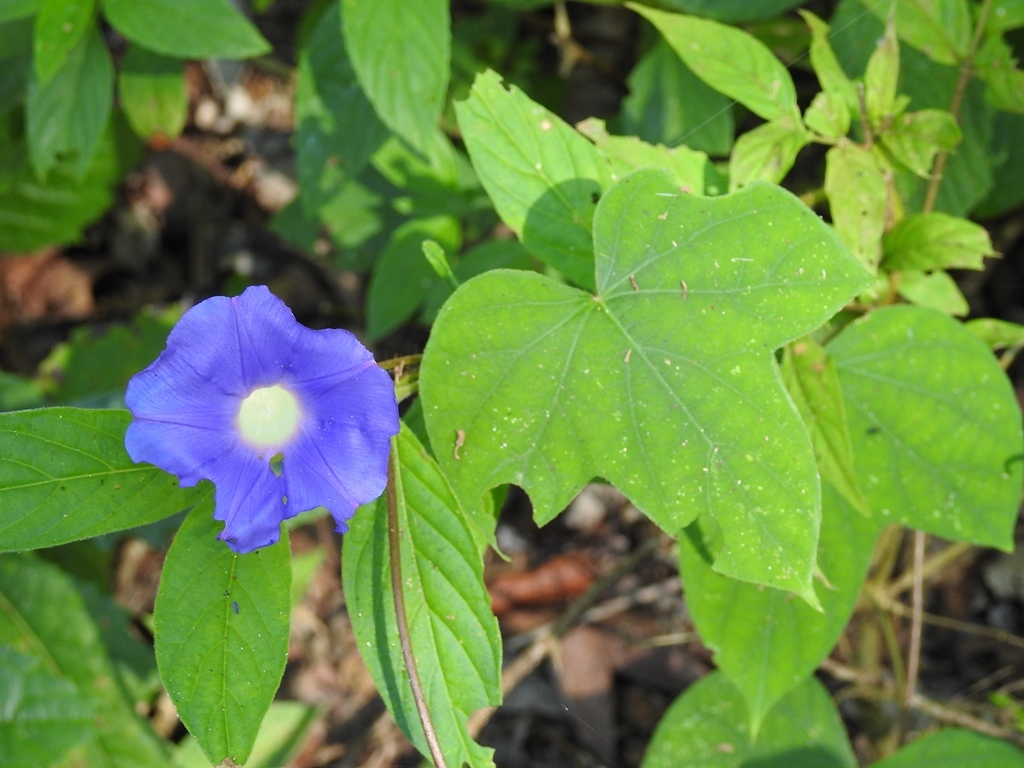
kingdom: Plantae
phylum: Tracheophyta
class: Magnoliopsida
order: Solanales
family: Convolvulaceae
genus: Ipomoea
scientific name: Ipomoea hederacea
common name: Ivy-leaved morning-glory
